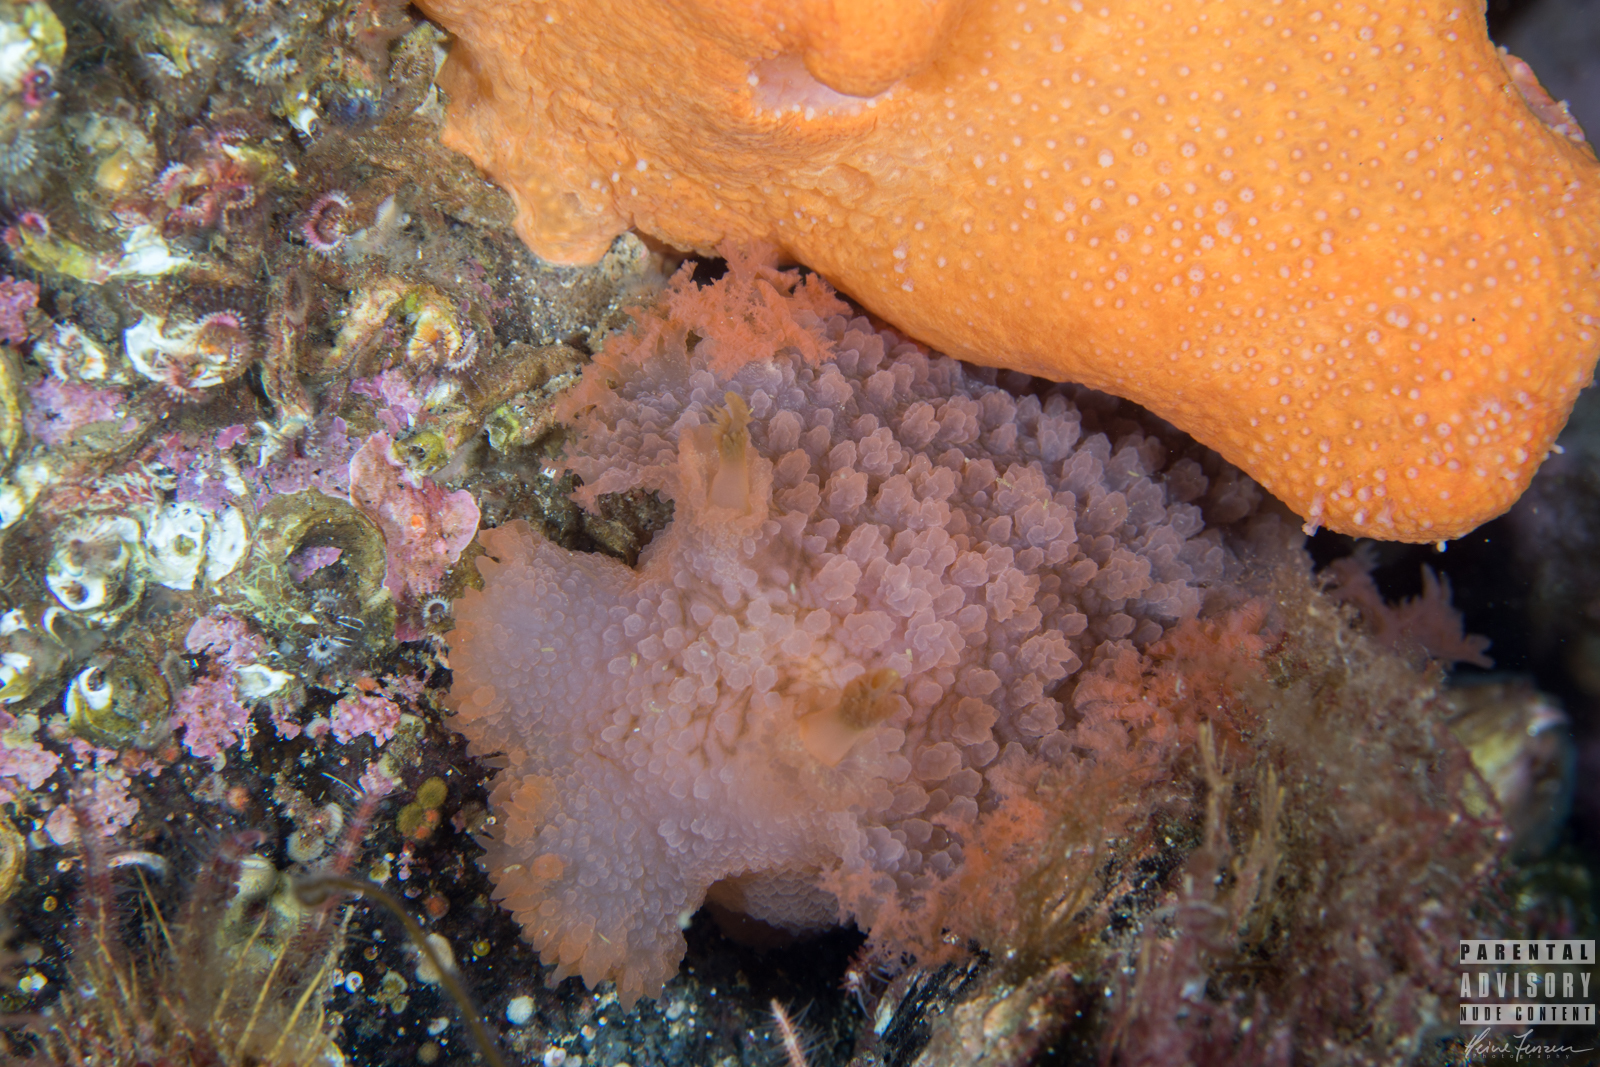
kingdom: Animalia
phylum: Mollusca
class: Gastropoda
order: Nudibranchia
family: Tritoniidae
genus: Tritonia
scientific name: Tritonia hombergii
